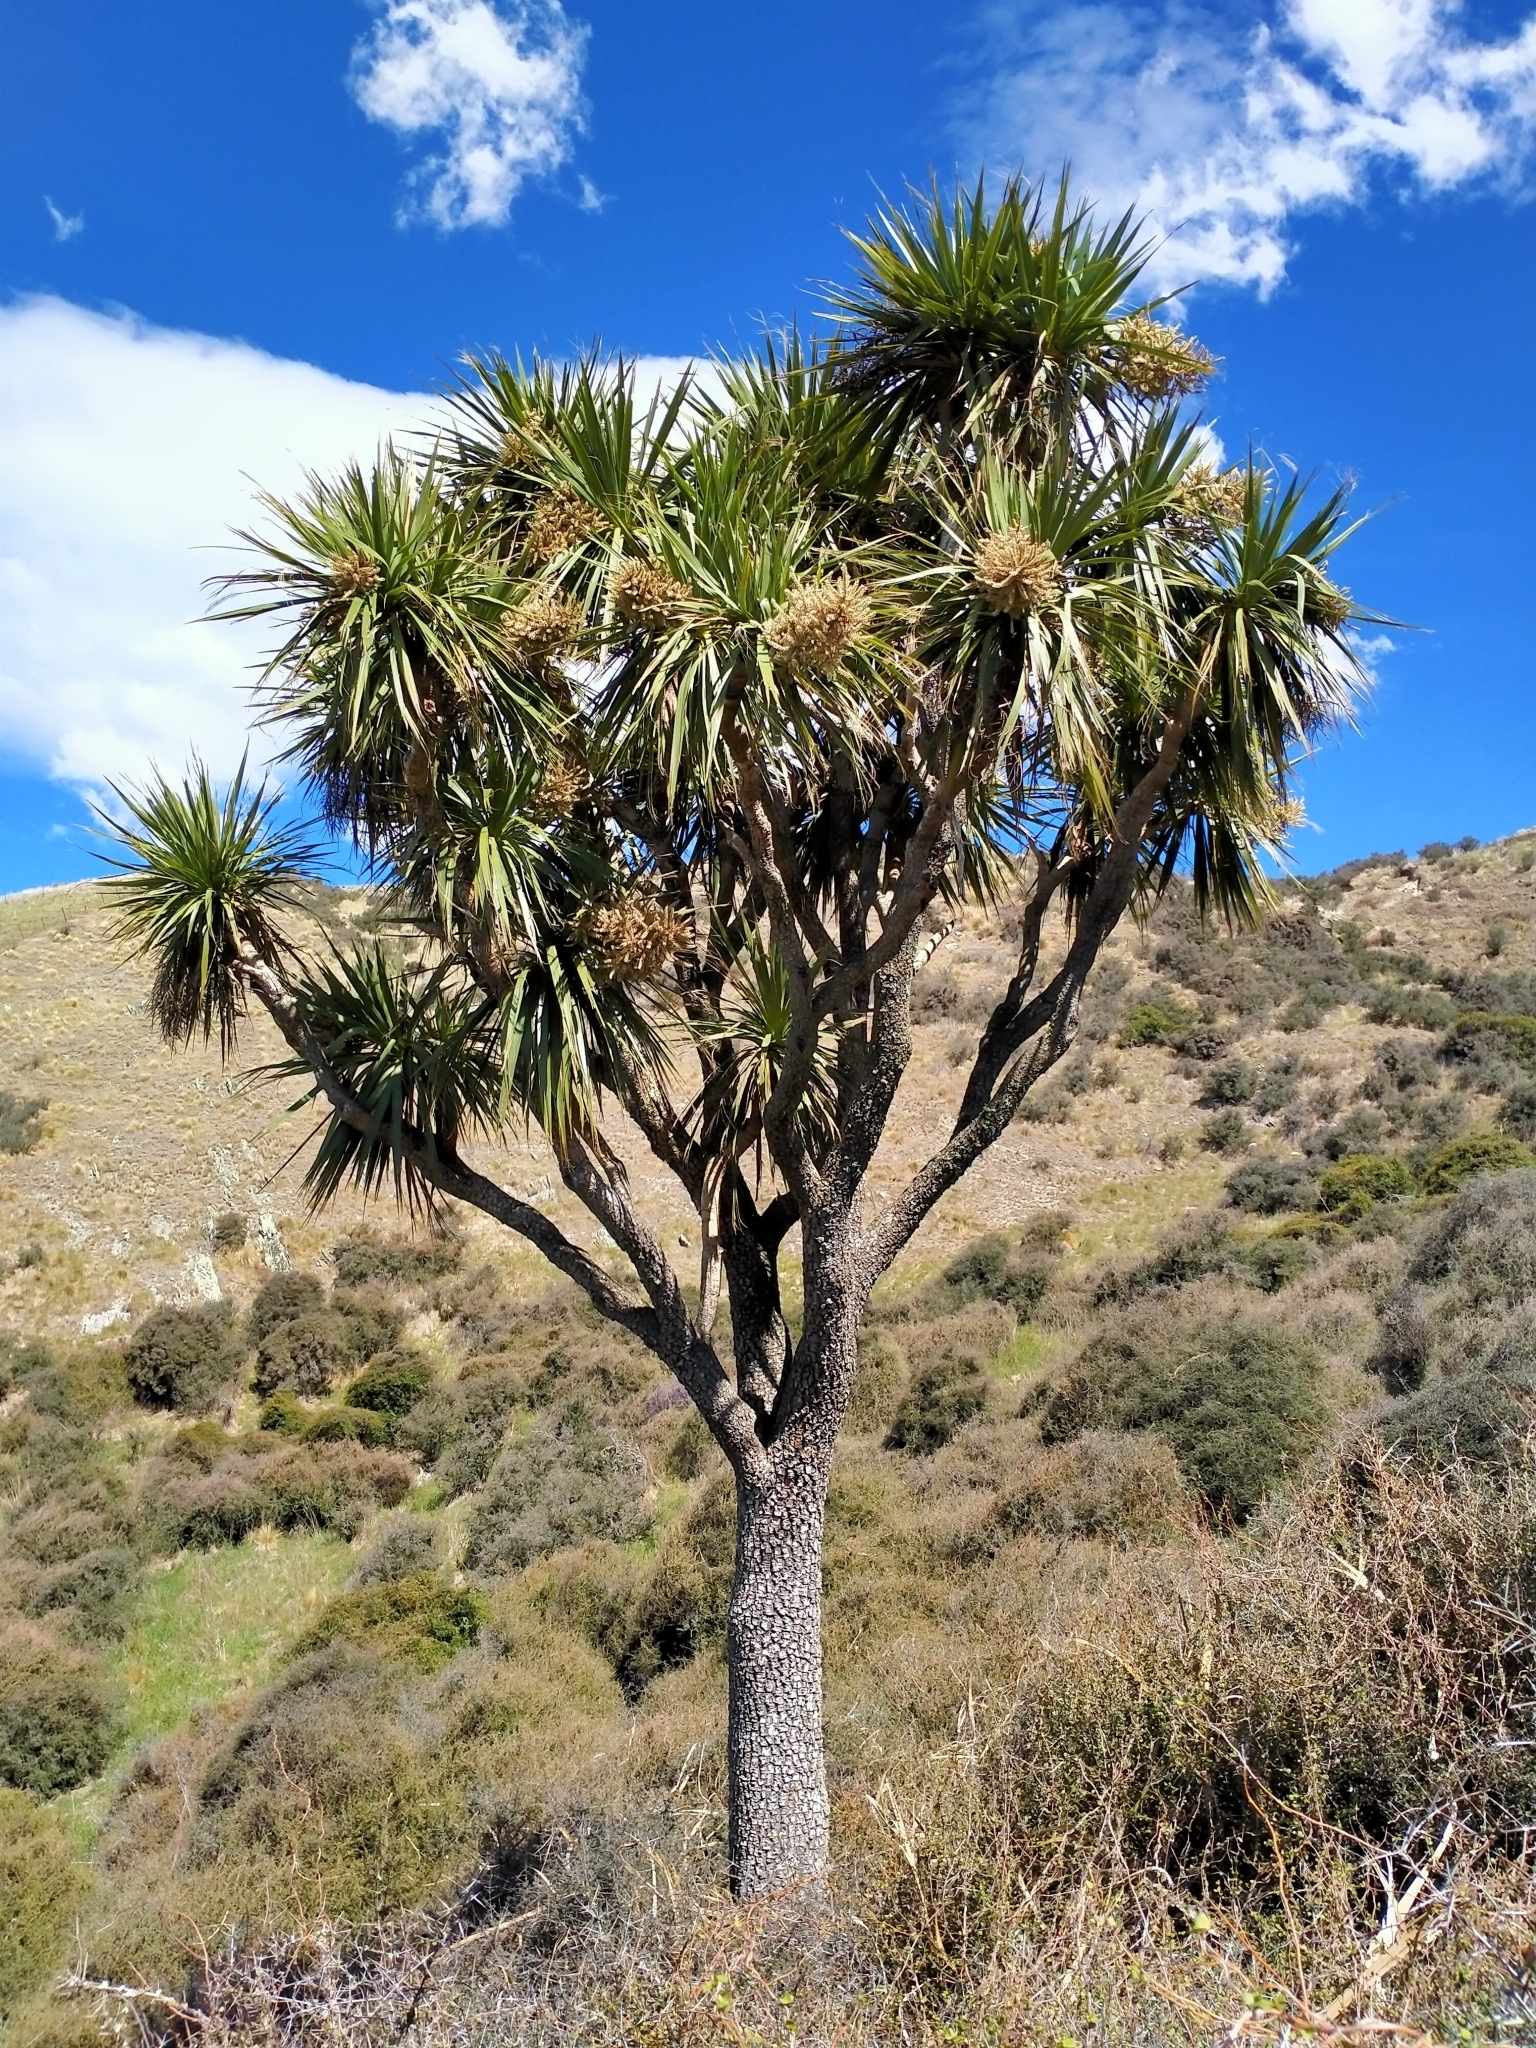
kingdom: Plantae
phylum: Tracheophyta
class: Liliopsida
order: Asparagales
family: Asparagaceae
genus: Cordyline
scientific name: Cordyline australis
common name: Cabbage-palm
